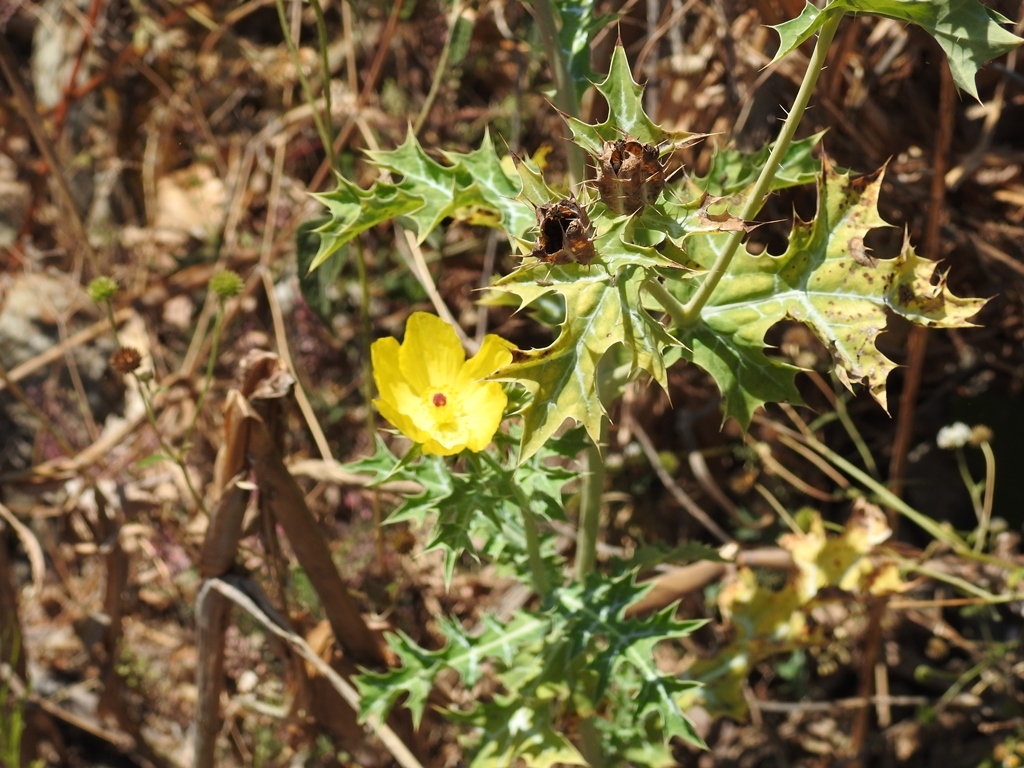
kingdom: Plantae
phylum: Tracheophyta
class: Magnoliopsida
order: Ranunculales
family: Papaveraceae
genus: Argemone
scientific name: Argemone mexicana
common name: Mexican poppy
